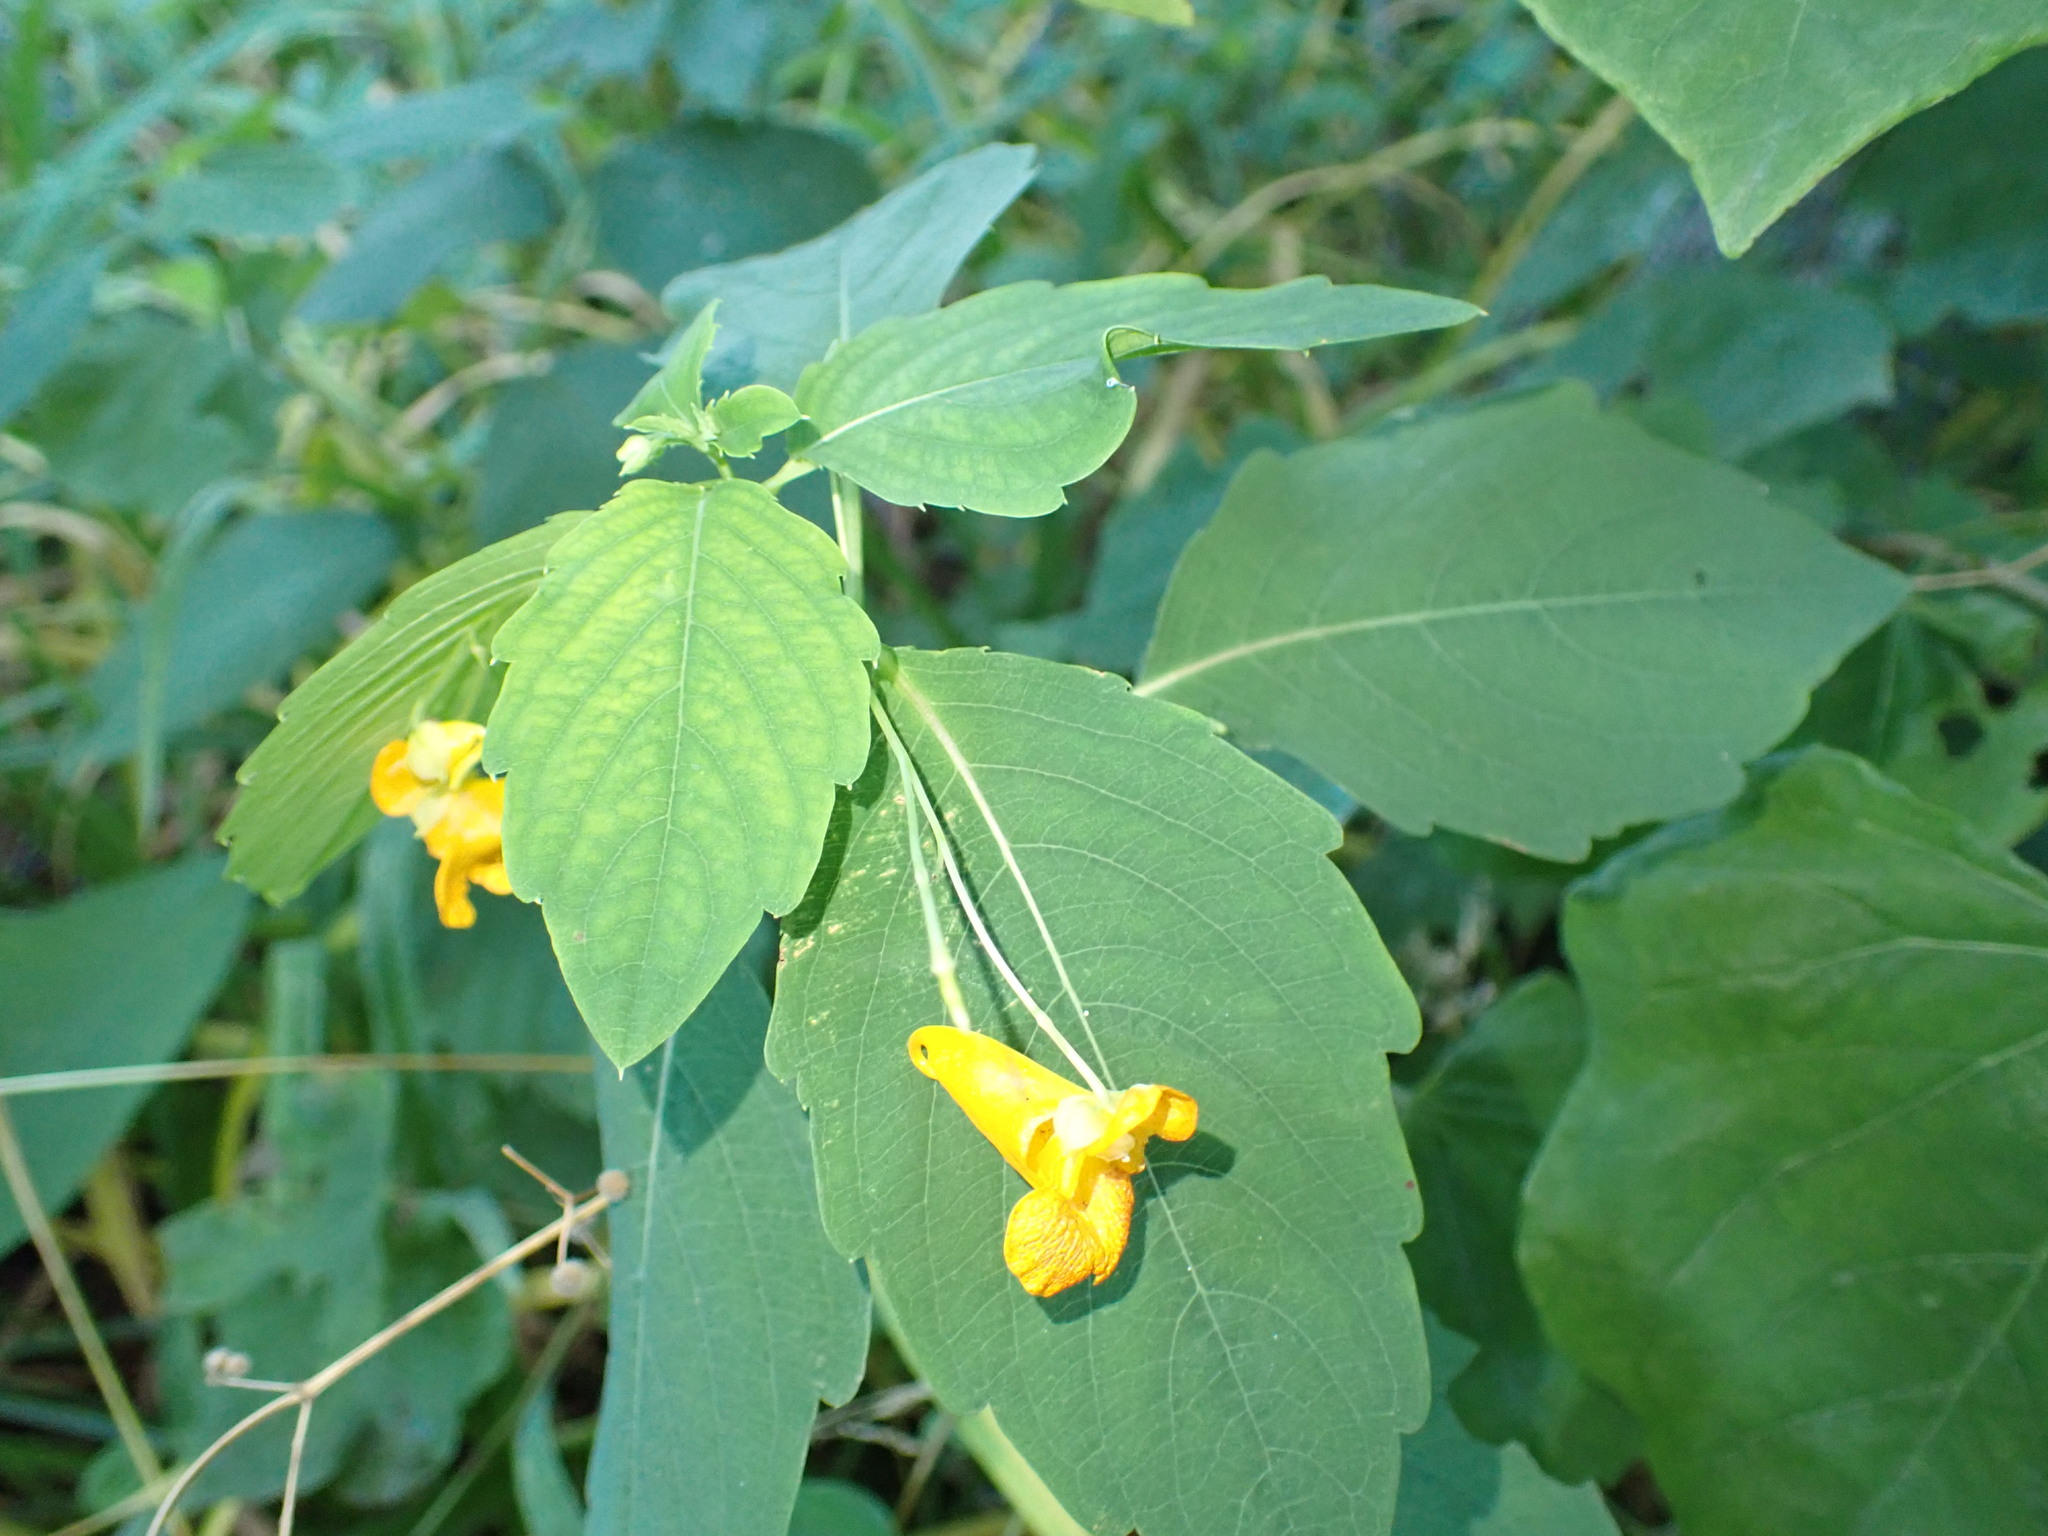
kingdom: Plantae
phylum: Tracheophyta
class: Magnoliopsida
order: Ericales
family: Balsaminaceae
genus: Impatiens
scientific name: Impatiens capensis
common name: Orange balsam
